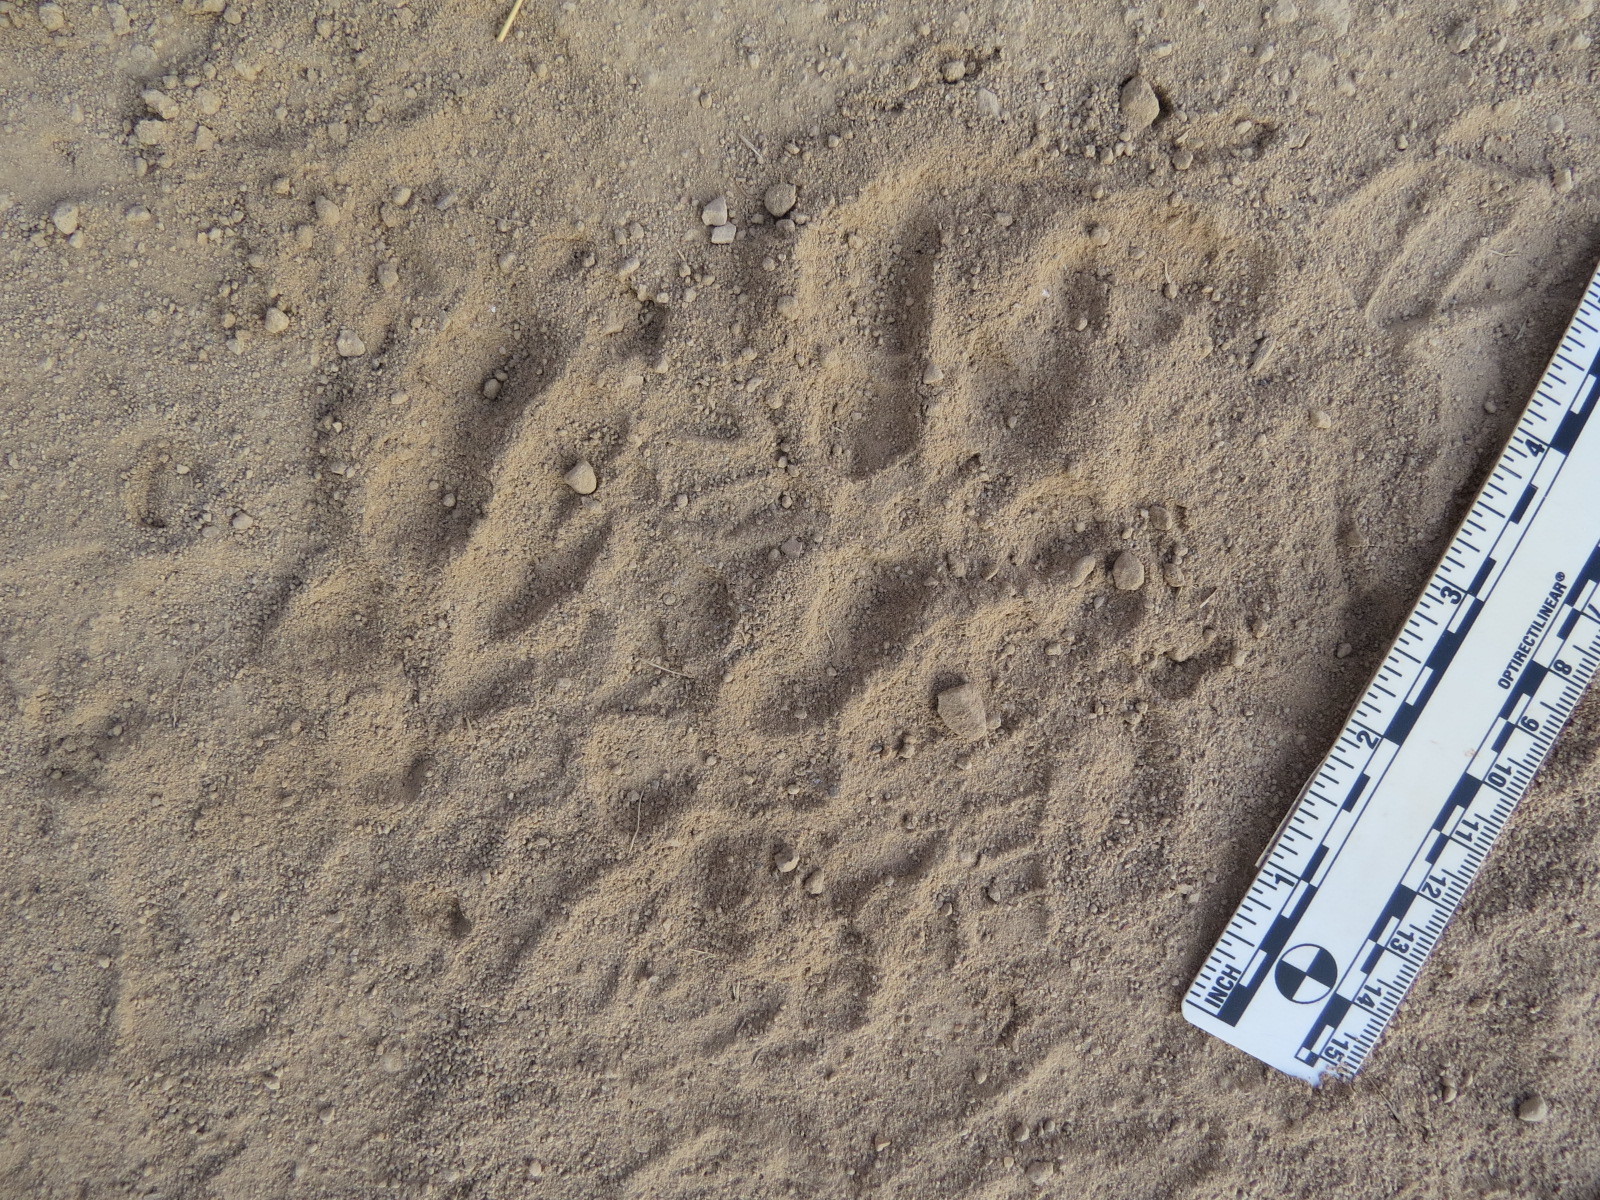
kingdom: Animalia
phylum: Chordata
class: Aves
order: Strigiformes
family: Strigidae
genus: Bubo
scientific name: Bubo virginianus
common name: Great horned owl
